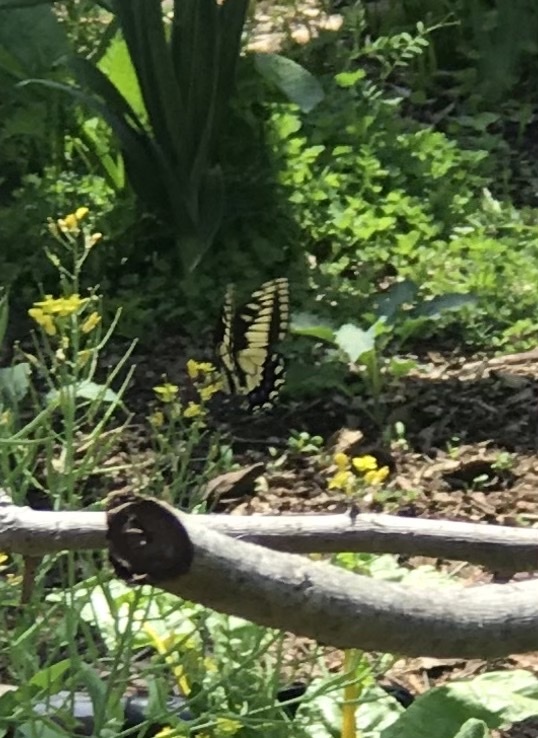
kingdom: Animalia
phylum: Arthropoda
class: Insecta
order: Lepidoptera
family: Papilionidae
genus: Papilio
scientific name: Papilio zelicaon
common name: Anise swallowtail
